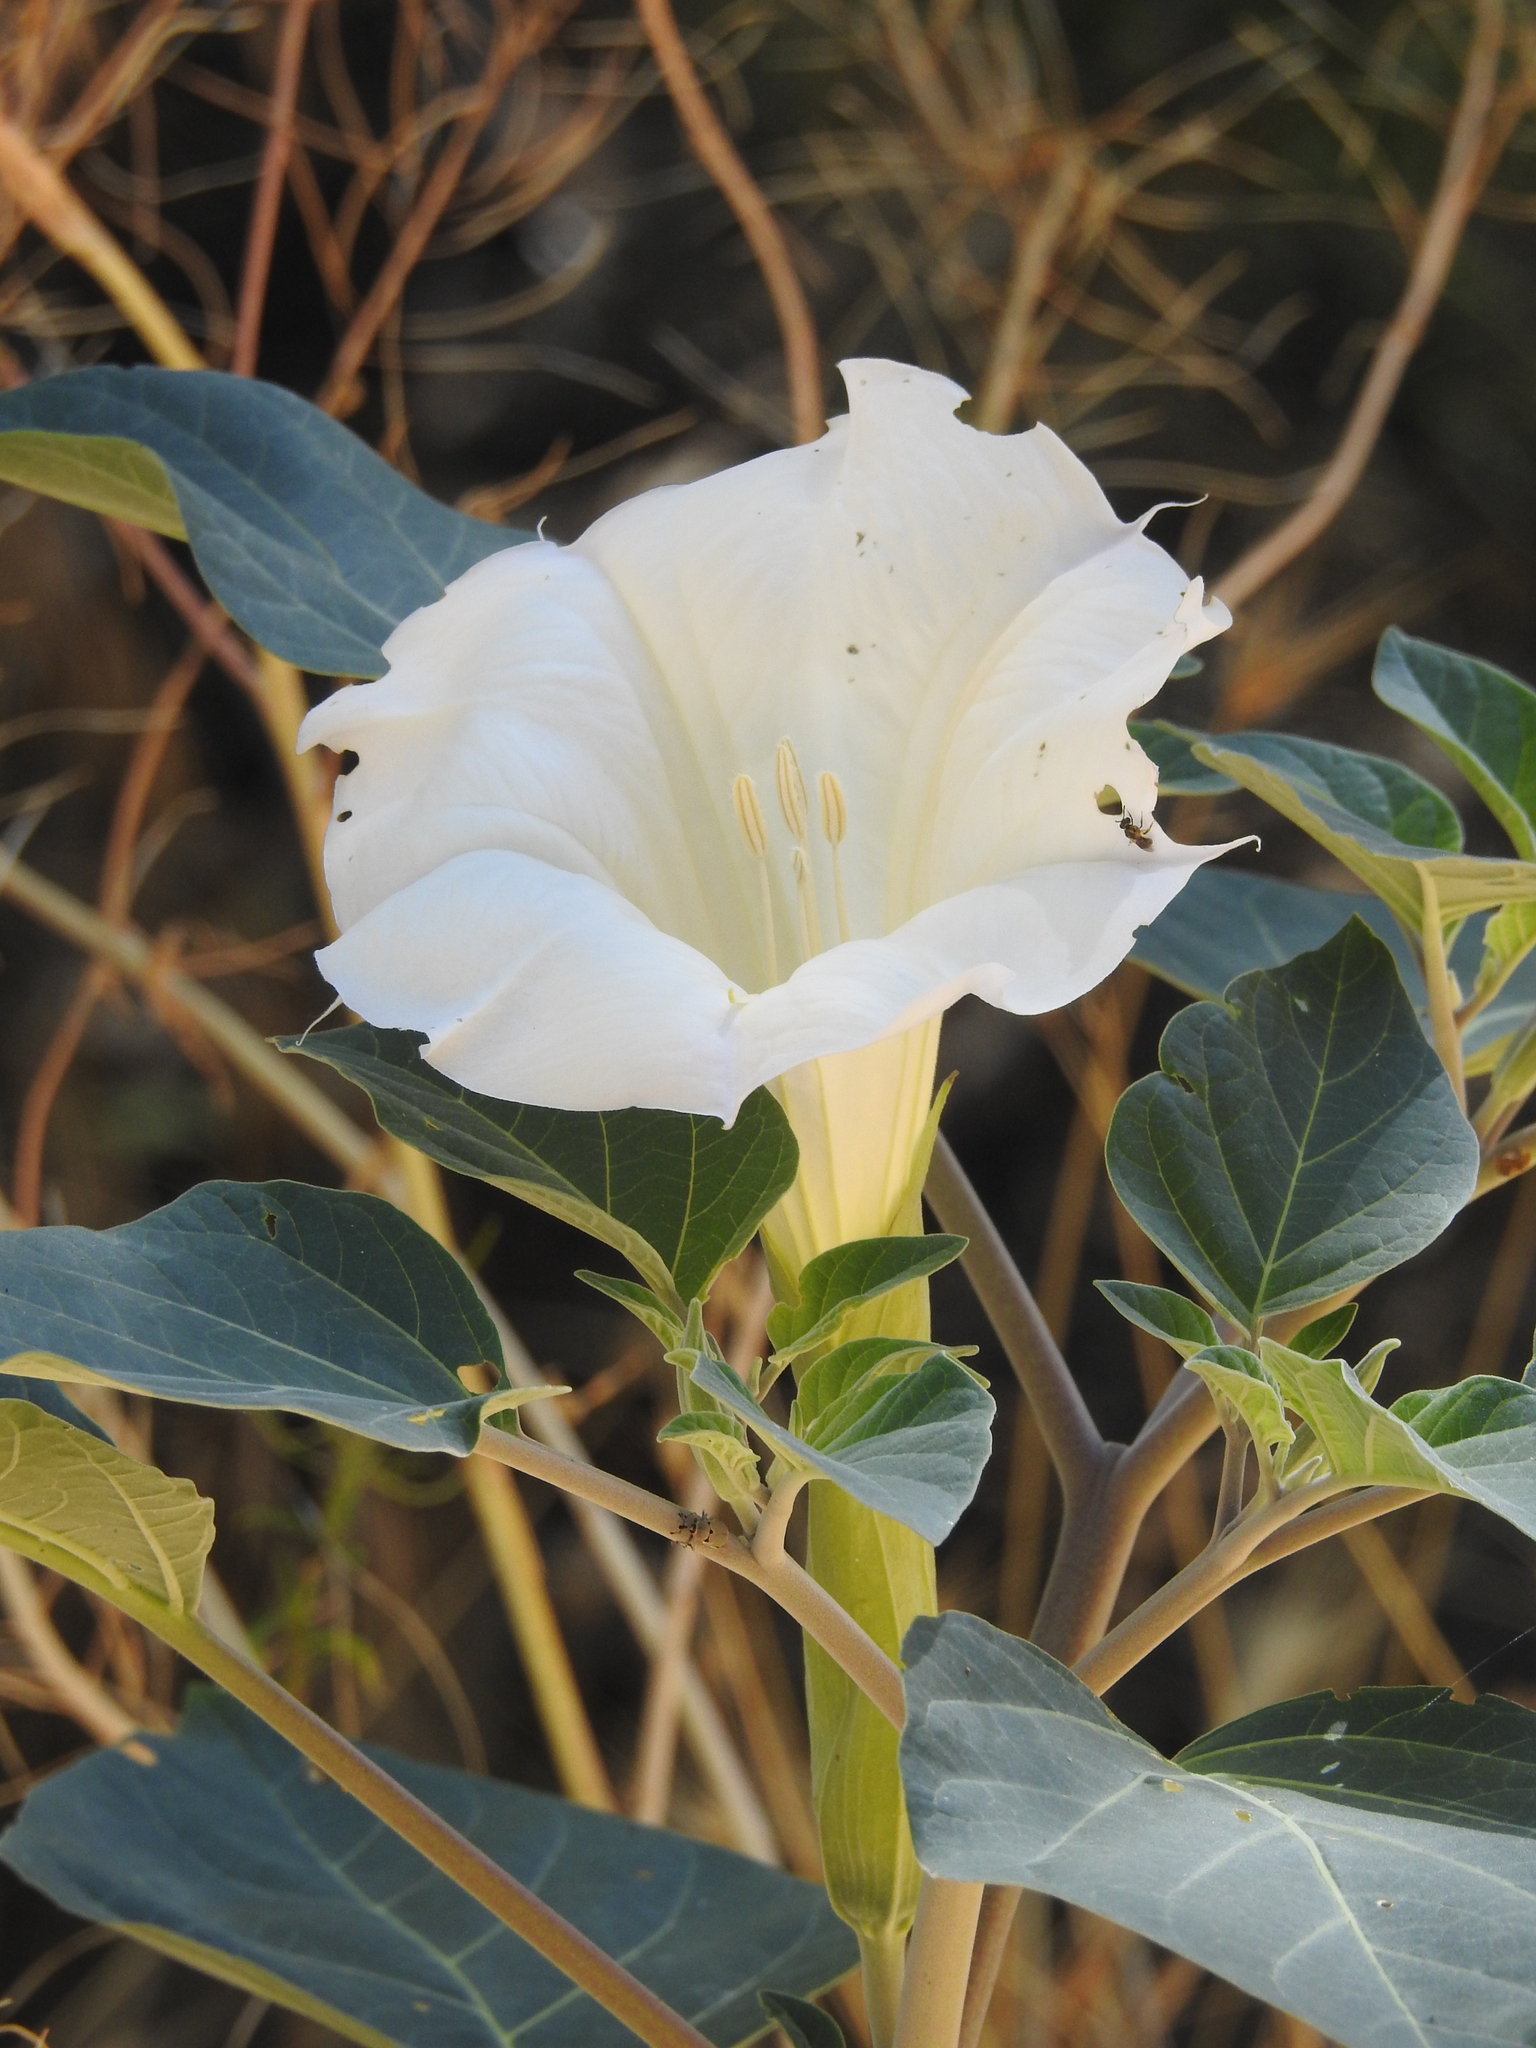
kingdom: Plantae
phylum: Tracheophyta
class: Magnoliopsida
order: Solanales
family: Solanaceae
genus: Datura
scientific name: Datura wrightii
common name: Sacred thorn-apple
